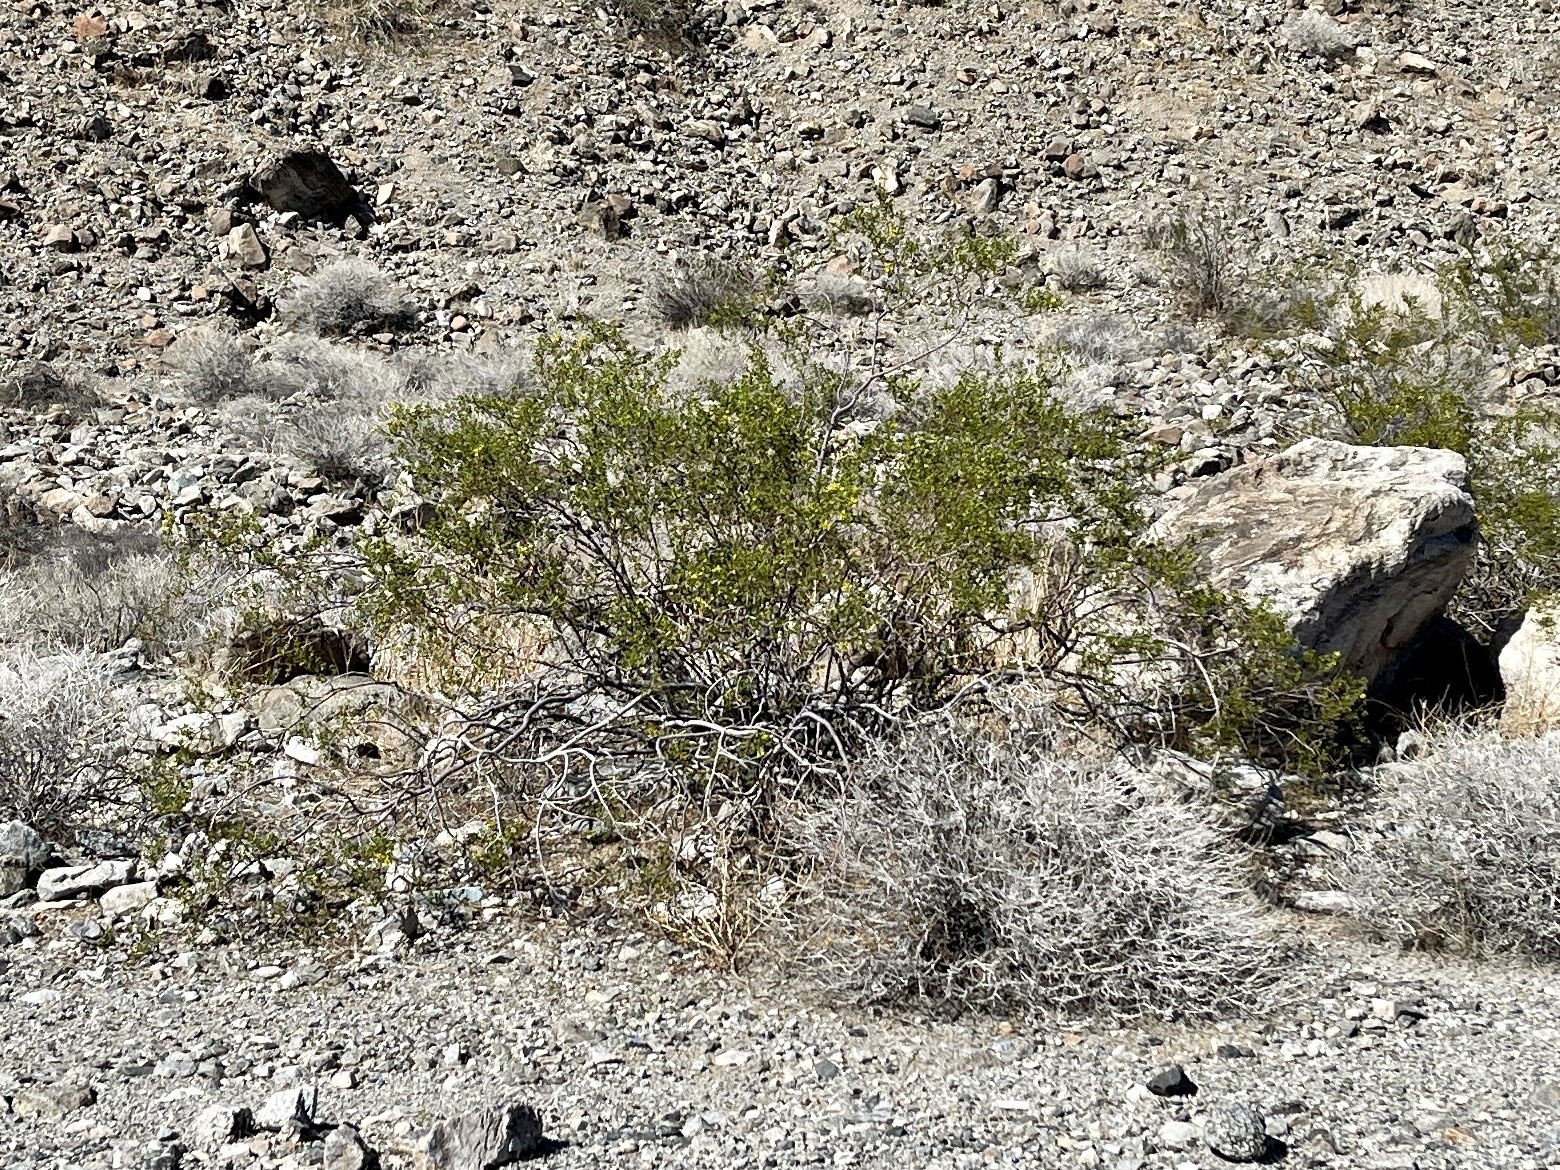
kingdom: Plantae
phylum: Tracheophyta
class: Magnoliopsida
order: Zygophyllales
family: Zygophyllaceae
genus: Larrea
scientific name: Larrea tridentata
